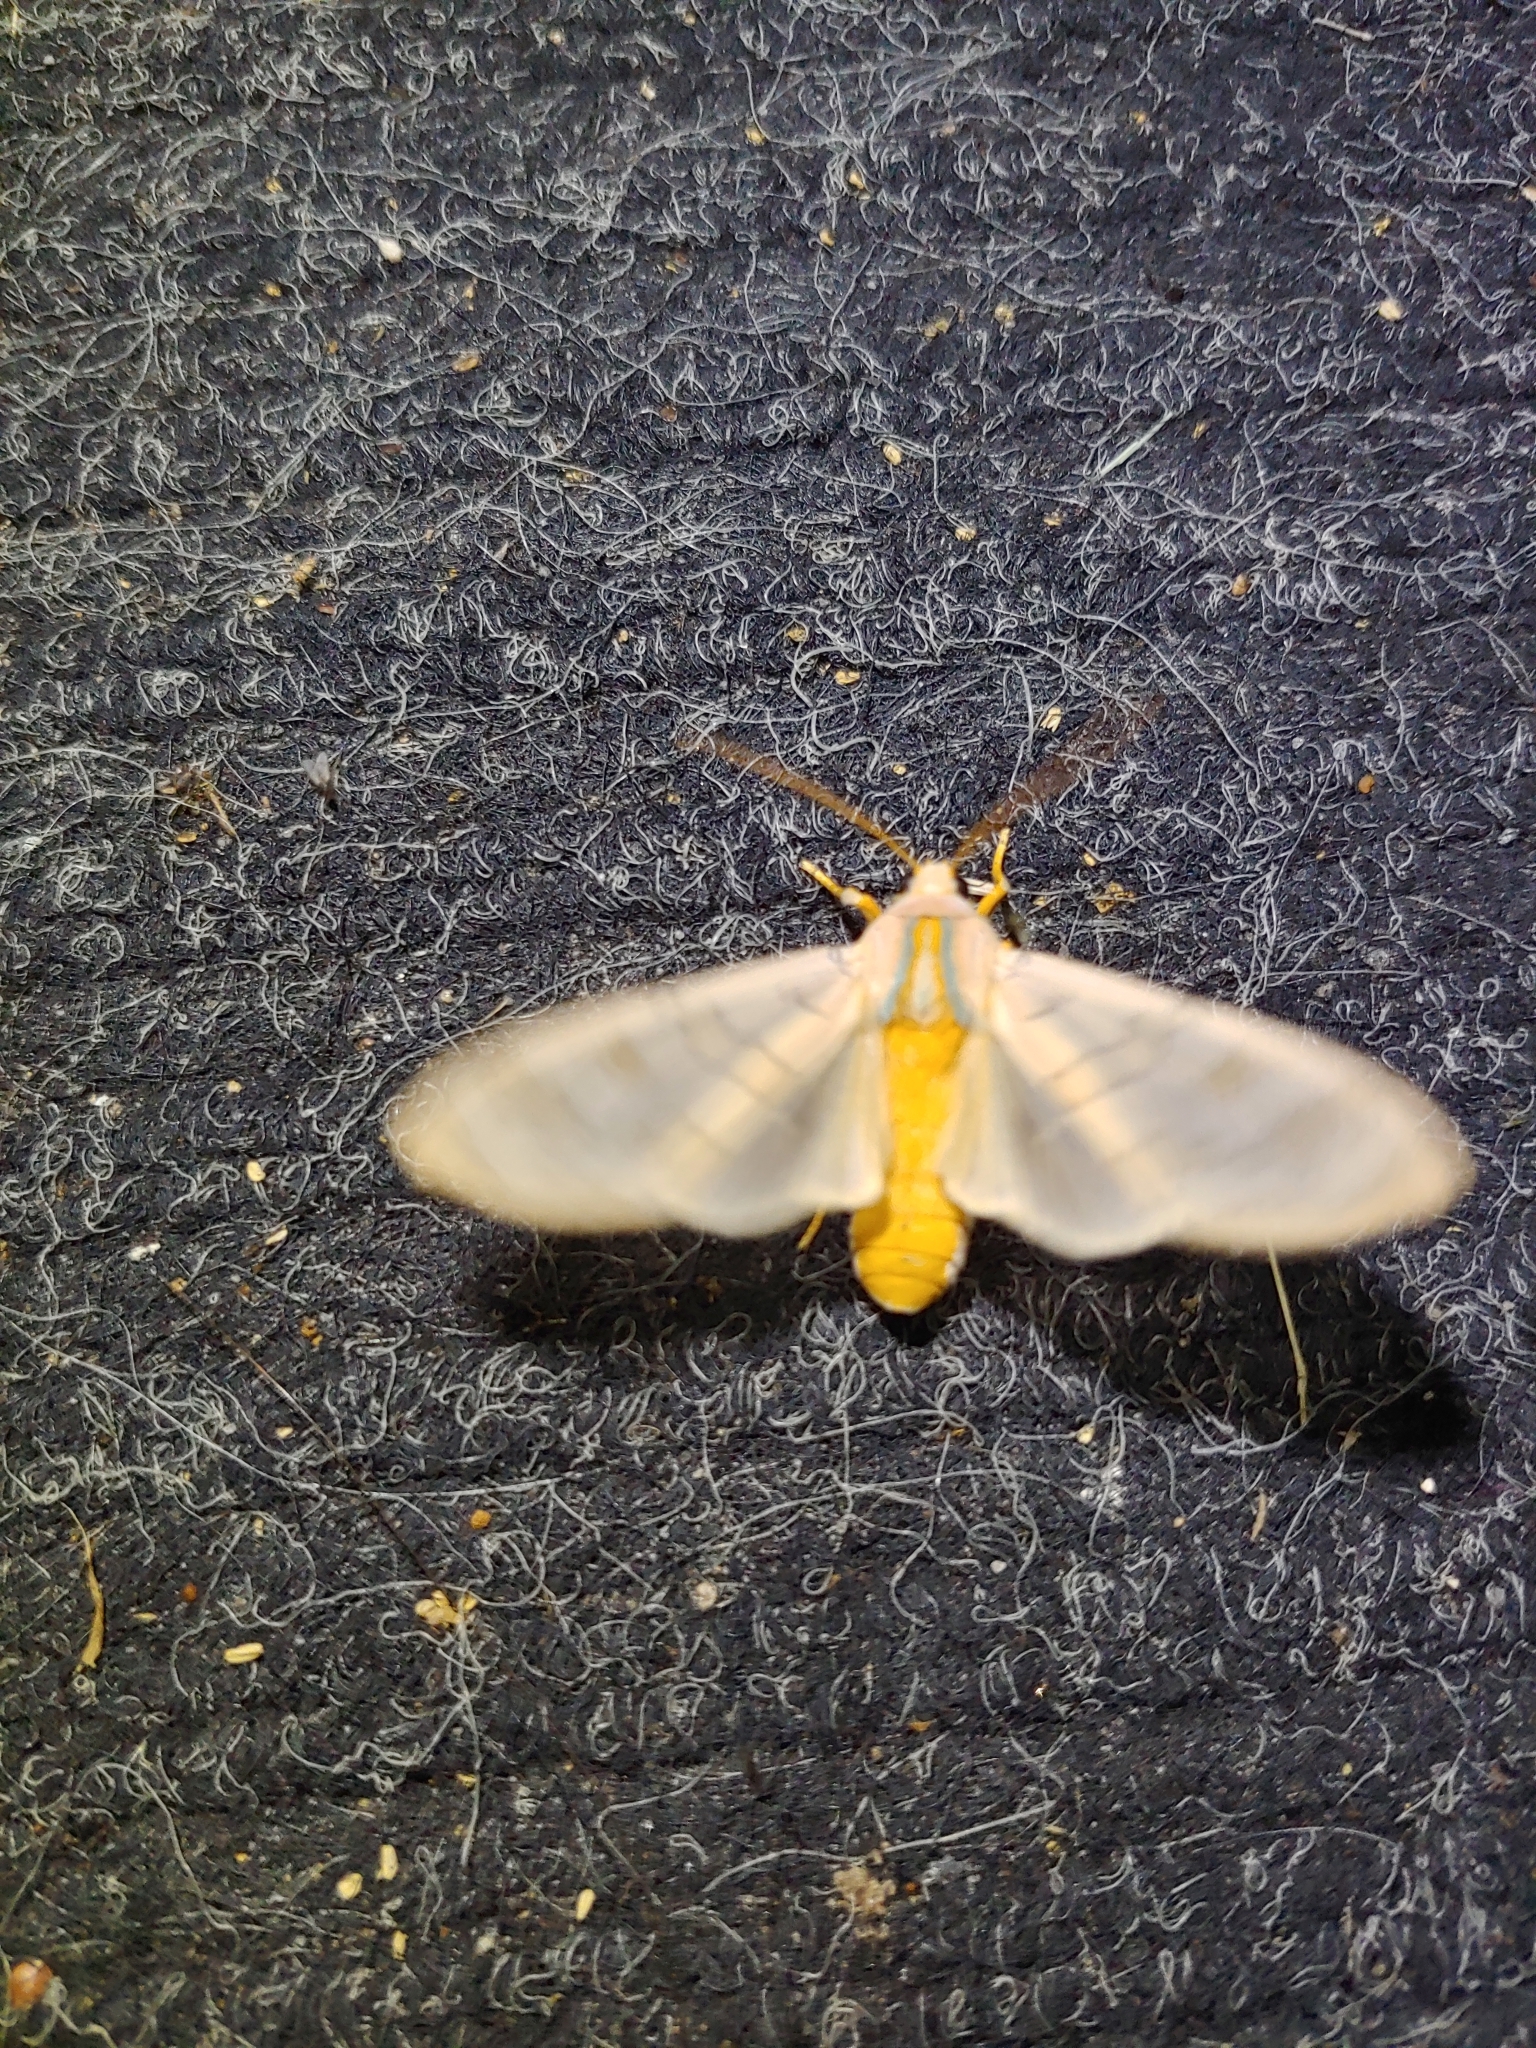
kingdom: Animalia
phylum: Arthropoda
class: Insecta
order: Lepidoptera
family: Erebidae
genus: Halysidota
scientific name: Halysidota
